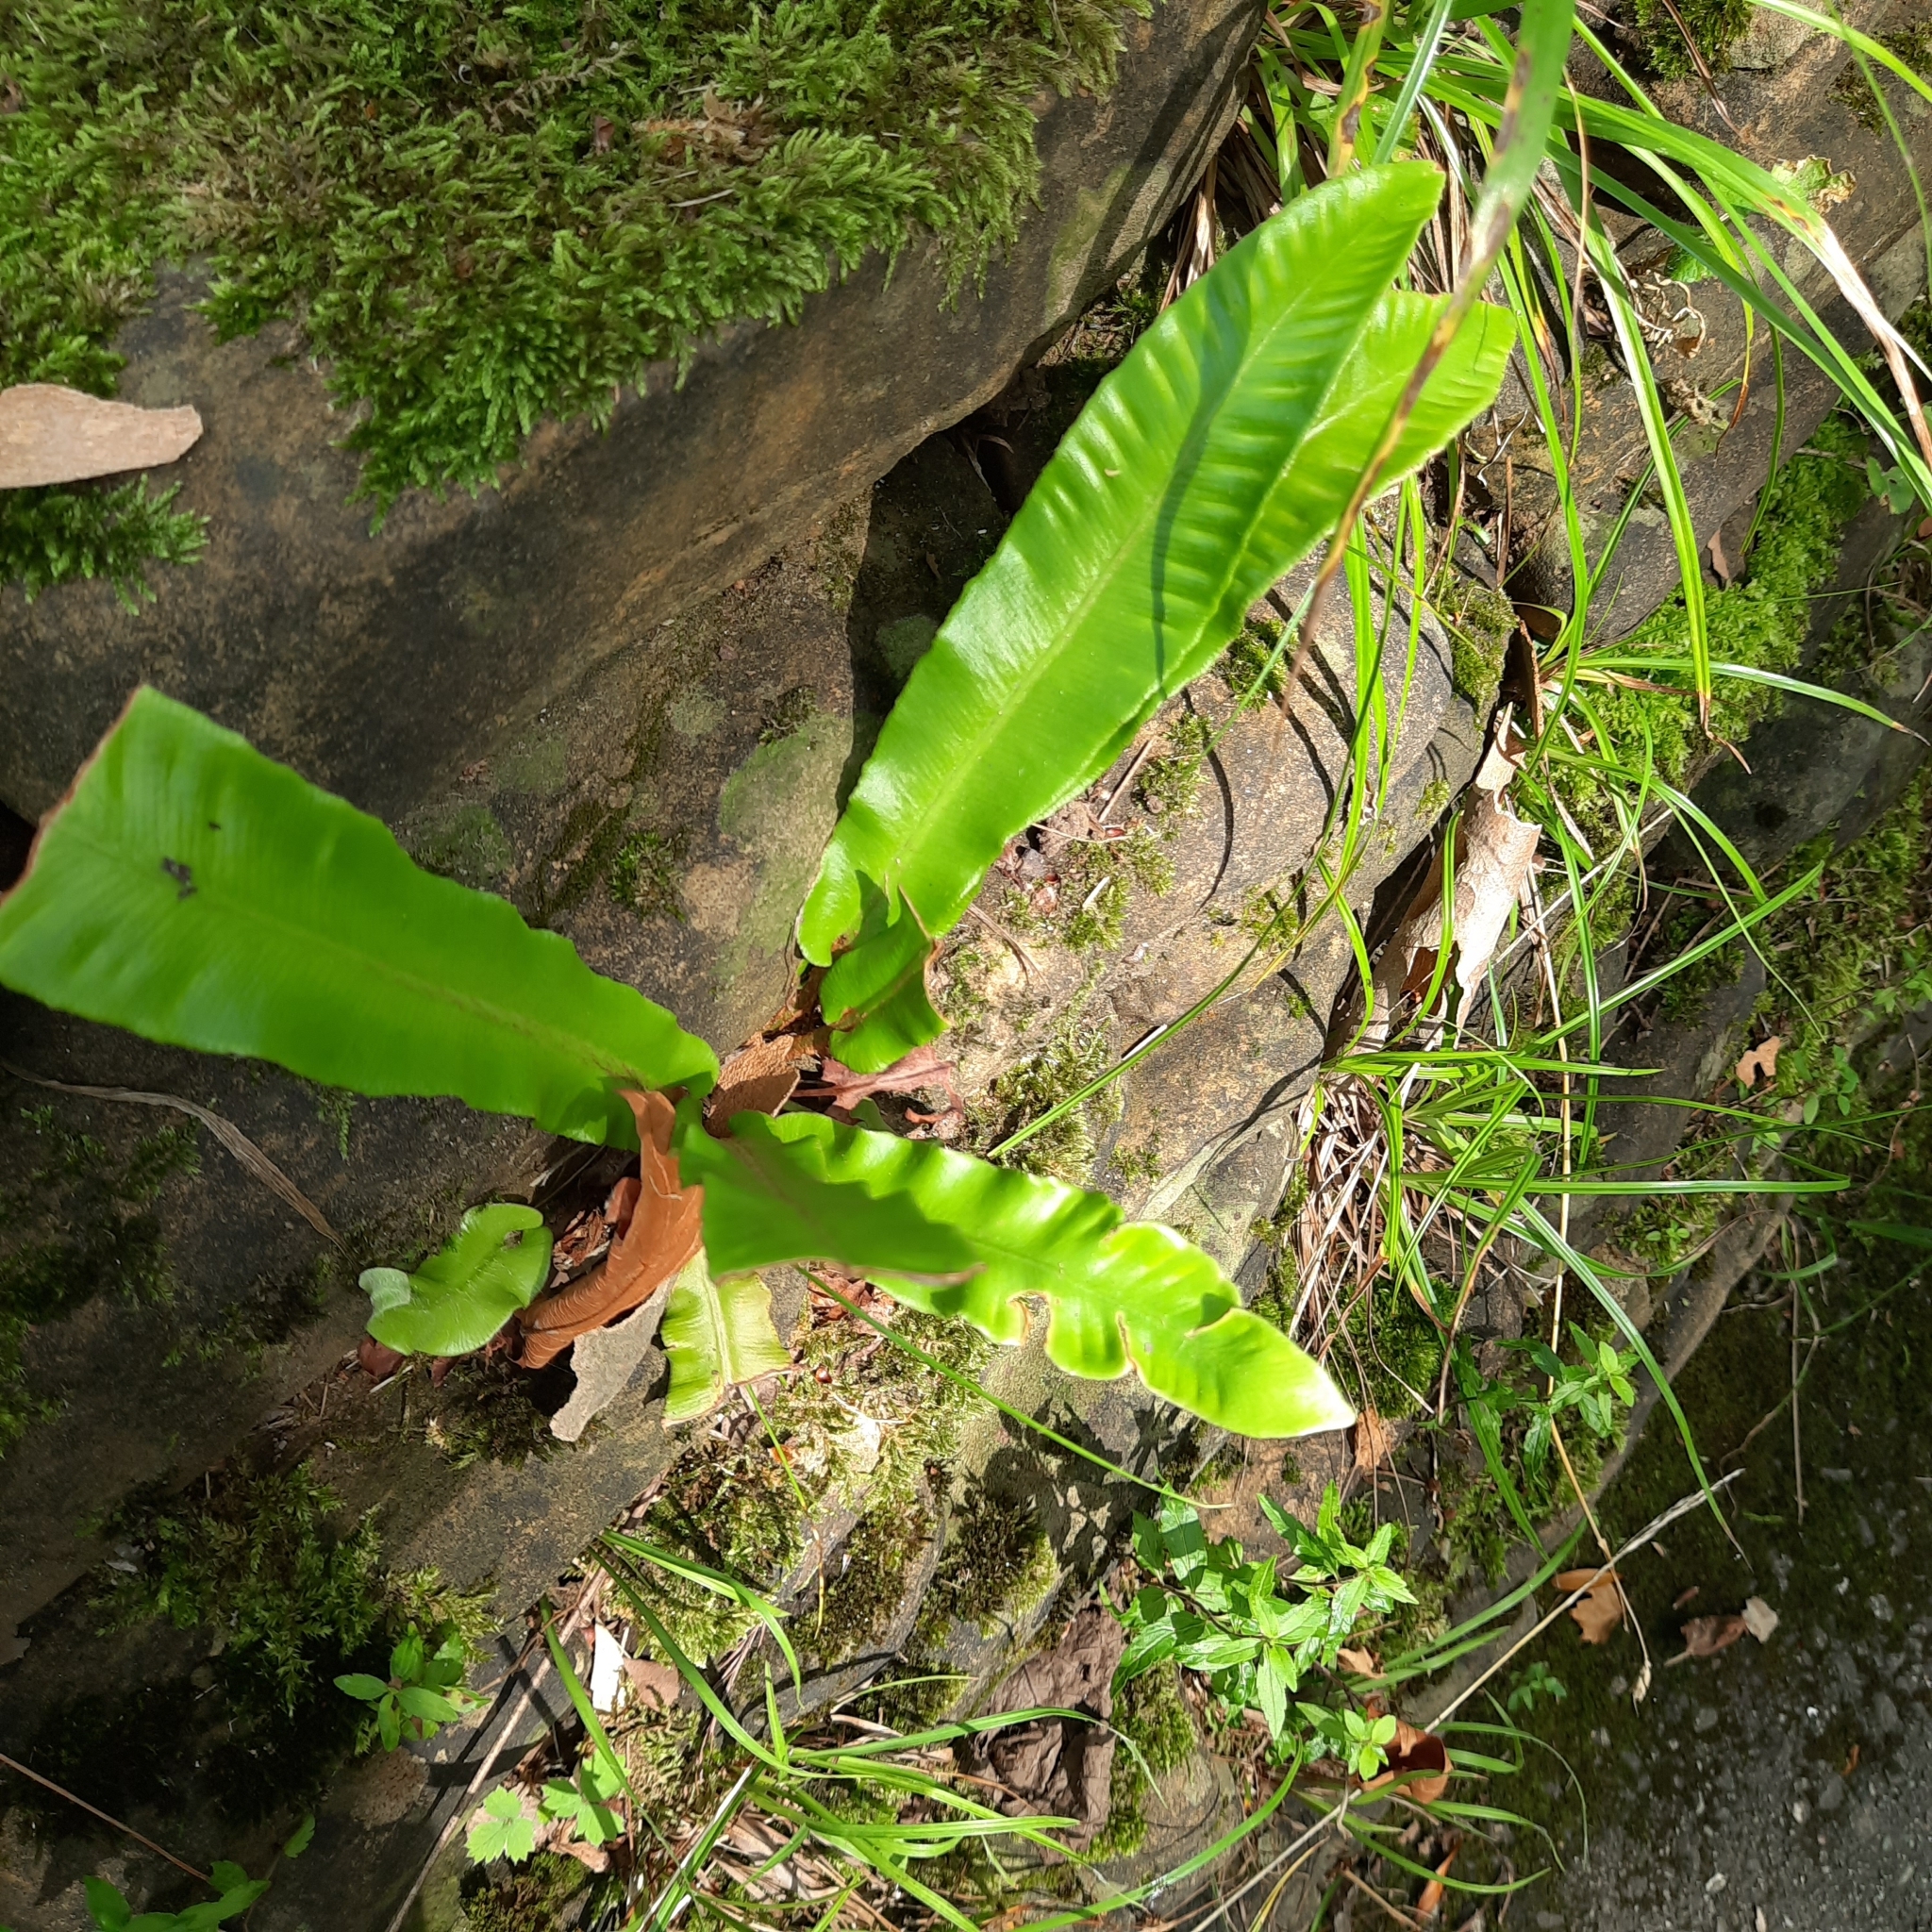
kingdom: Plantae
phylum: Tracheophyta
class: Polypodiopsida
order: Polypodiales
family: Aspleniaceae
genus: Asplenium
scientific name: Asplenium scolopendrium
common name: Hart's-tongue fern
